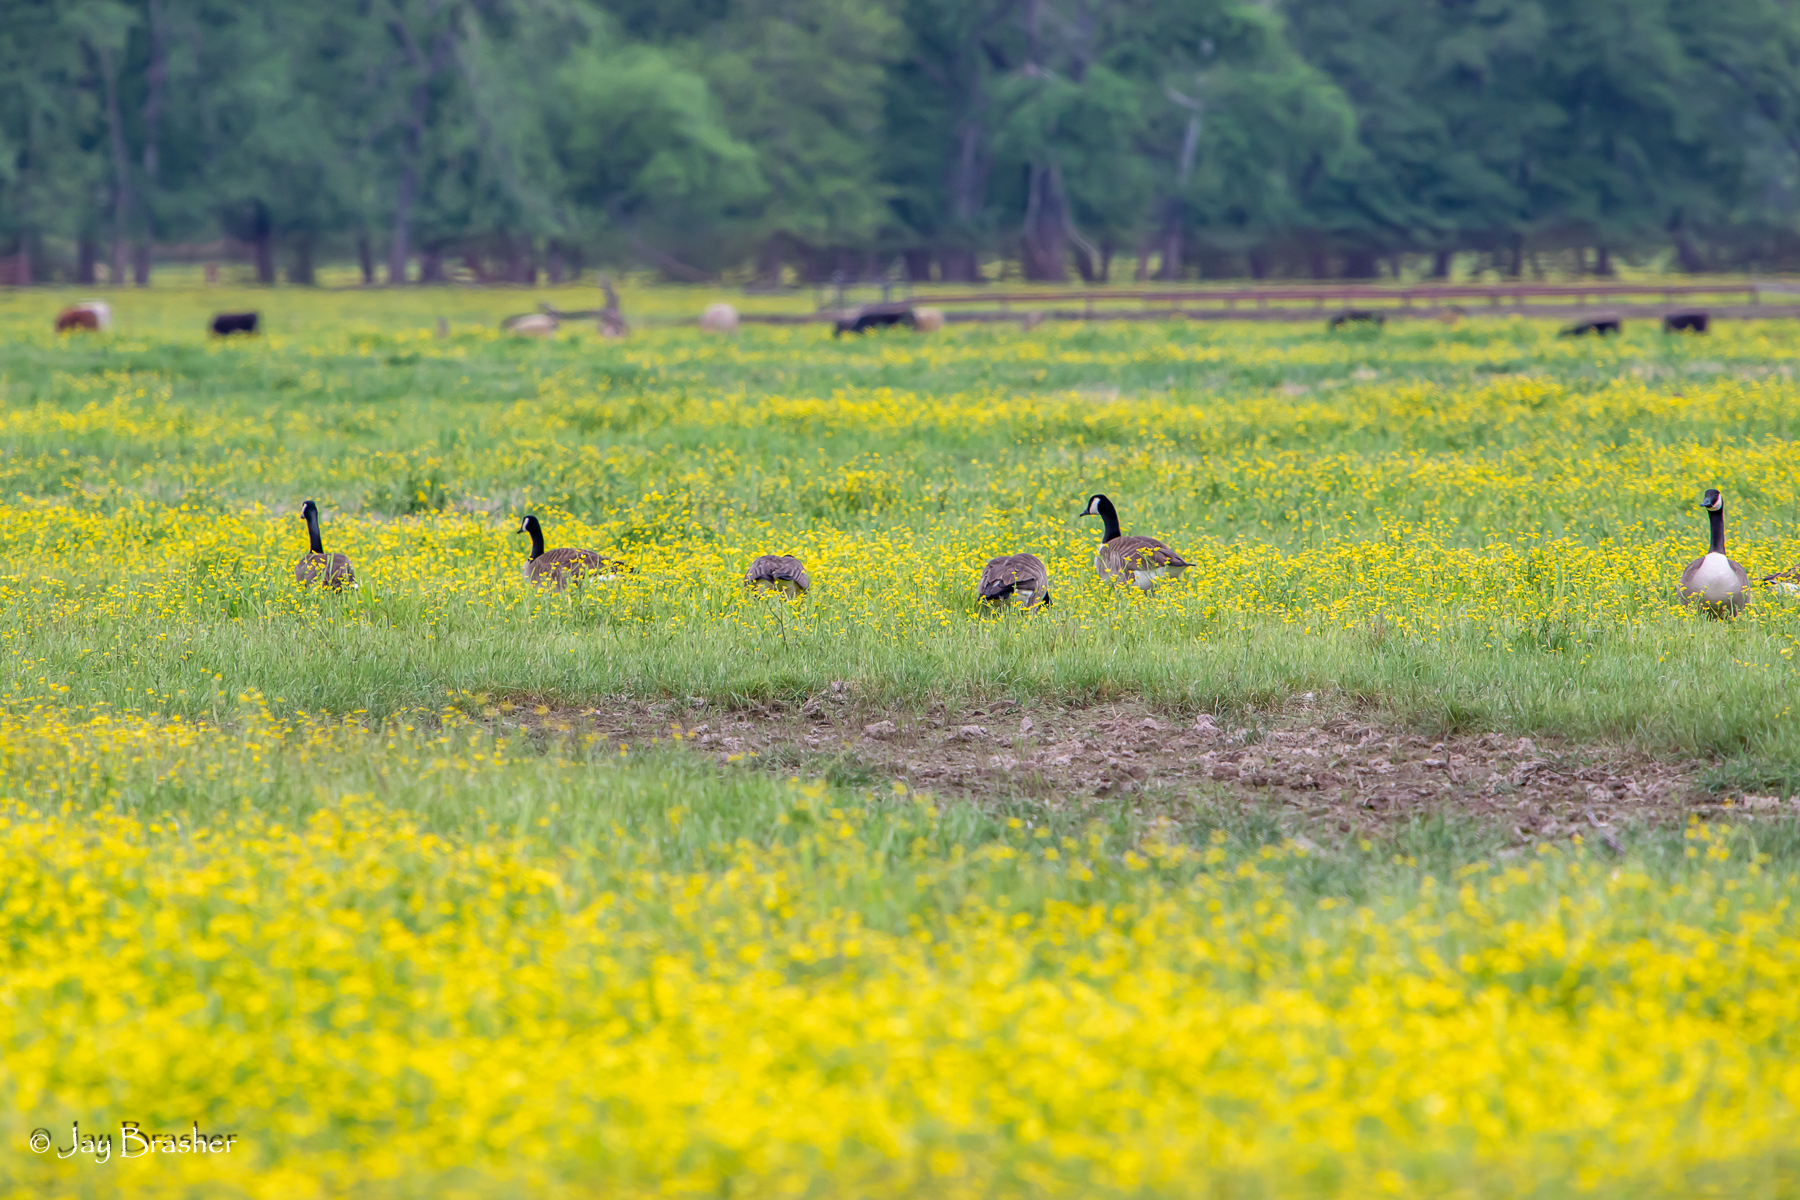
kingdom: Animalia
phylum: Chordata
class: Aves
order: Anseriformes
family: Anatidae
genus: Branta
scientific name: Branta canadensis
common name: Canada goose
